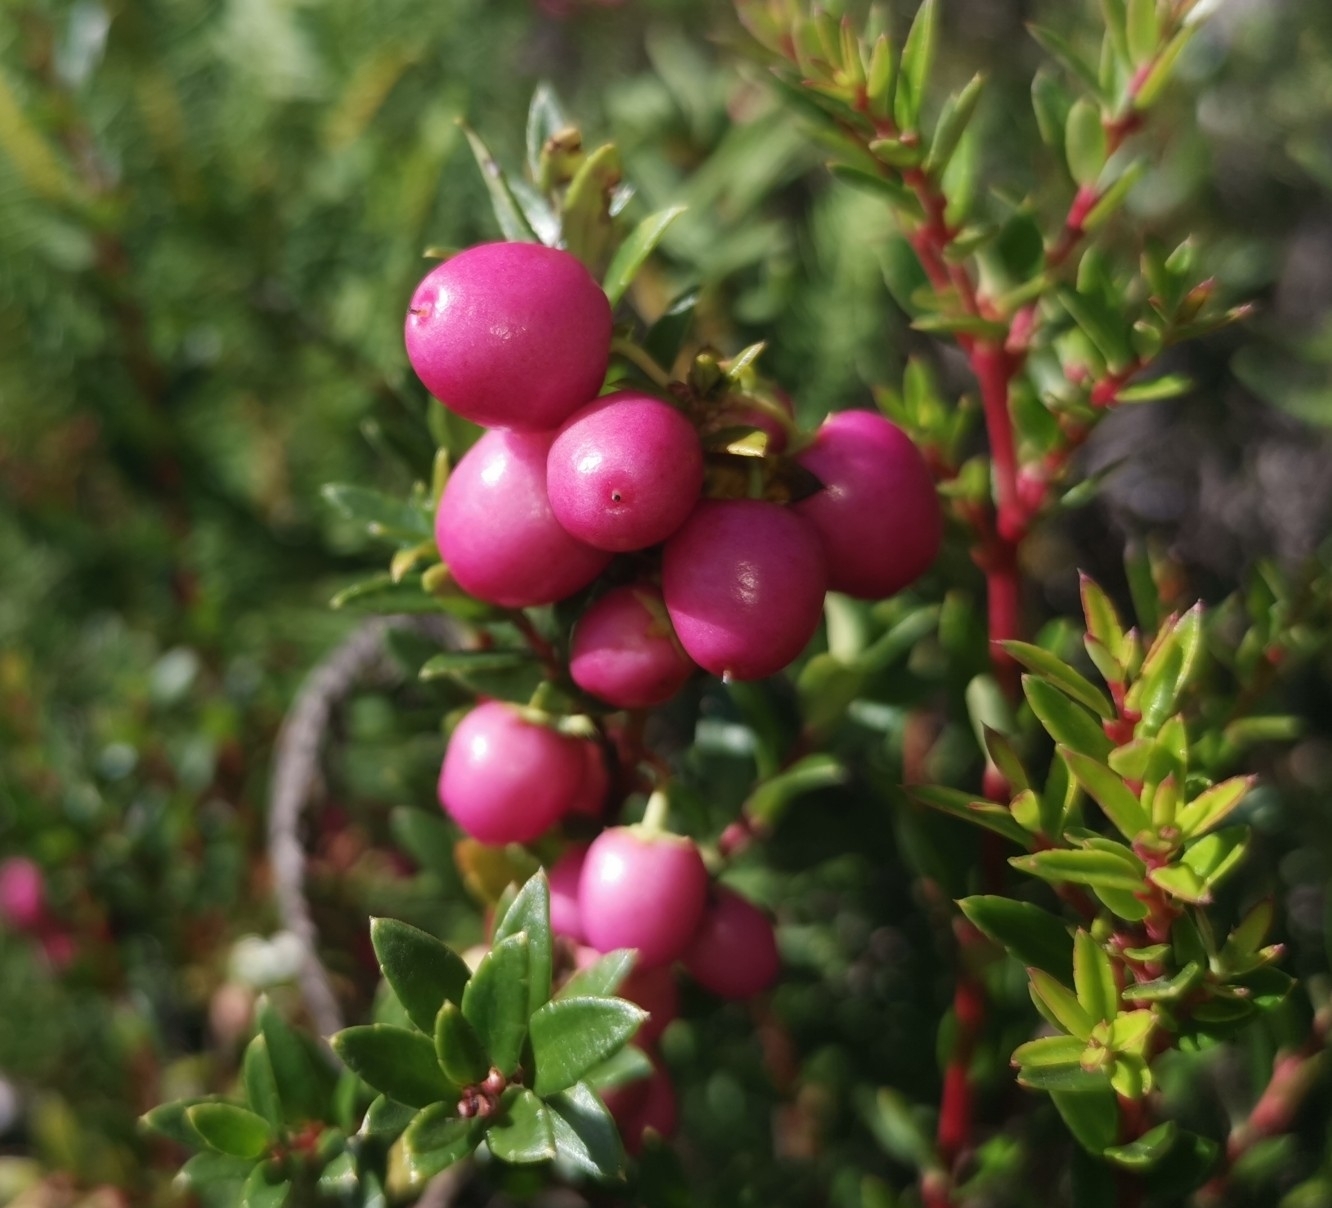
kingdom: Plantae
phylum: Tracheophyta
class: Magnoliopsida
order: Ericales
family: Ericaceae
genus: Gaultheria
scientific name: Gaultheria mucronata
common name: Prickly heath
